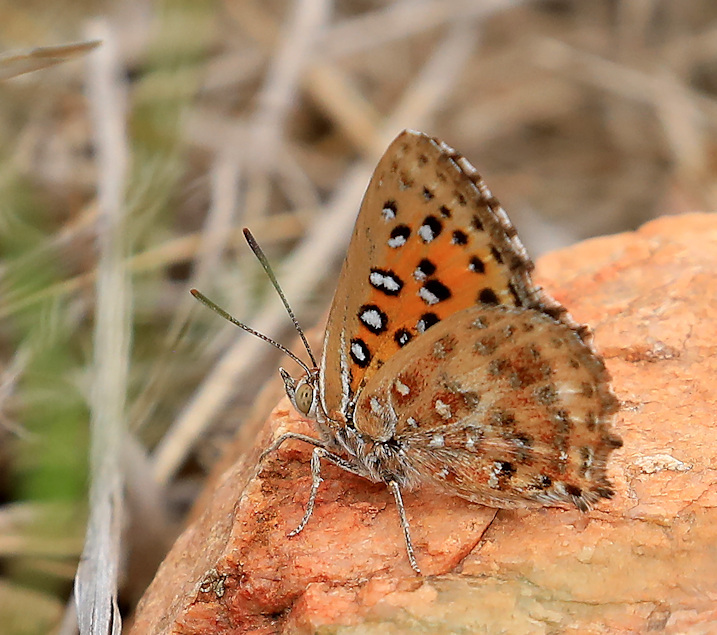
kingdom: Animalia
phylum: Arthropoda
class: Insecta
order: Lepidoptera
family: Lycaenidae
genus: Aloeides
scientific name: Aloeides damarensis
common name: Damara russet
